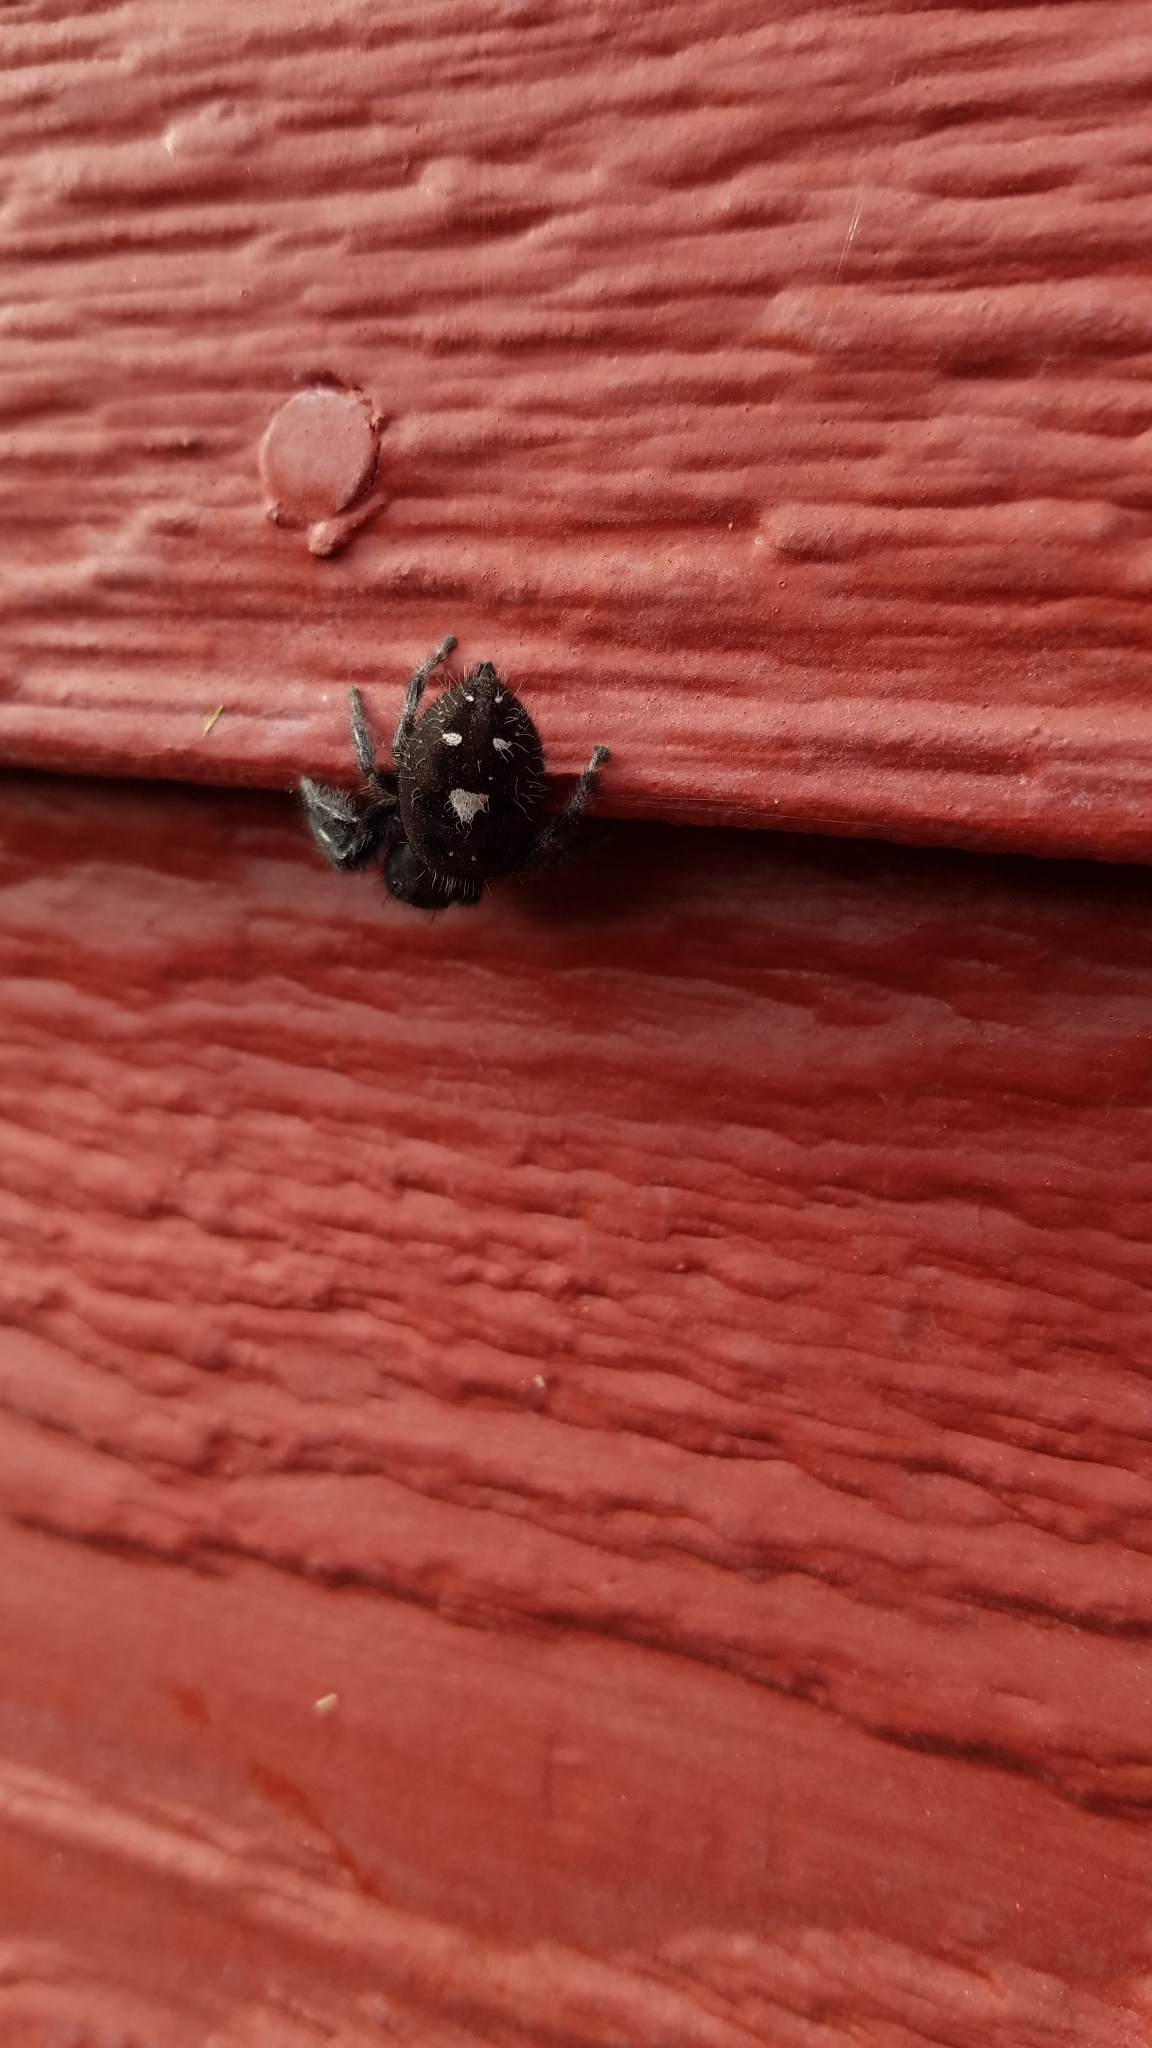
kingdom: Animalia
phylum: Arthropoda
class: Arachnida
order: Araneae
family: Salticidae
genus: Phidippus
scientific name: Phidippus audax
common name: Bold jumper
